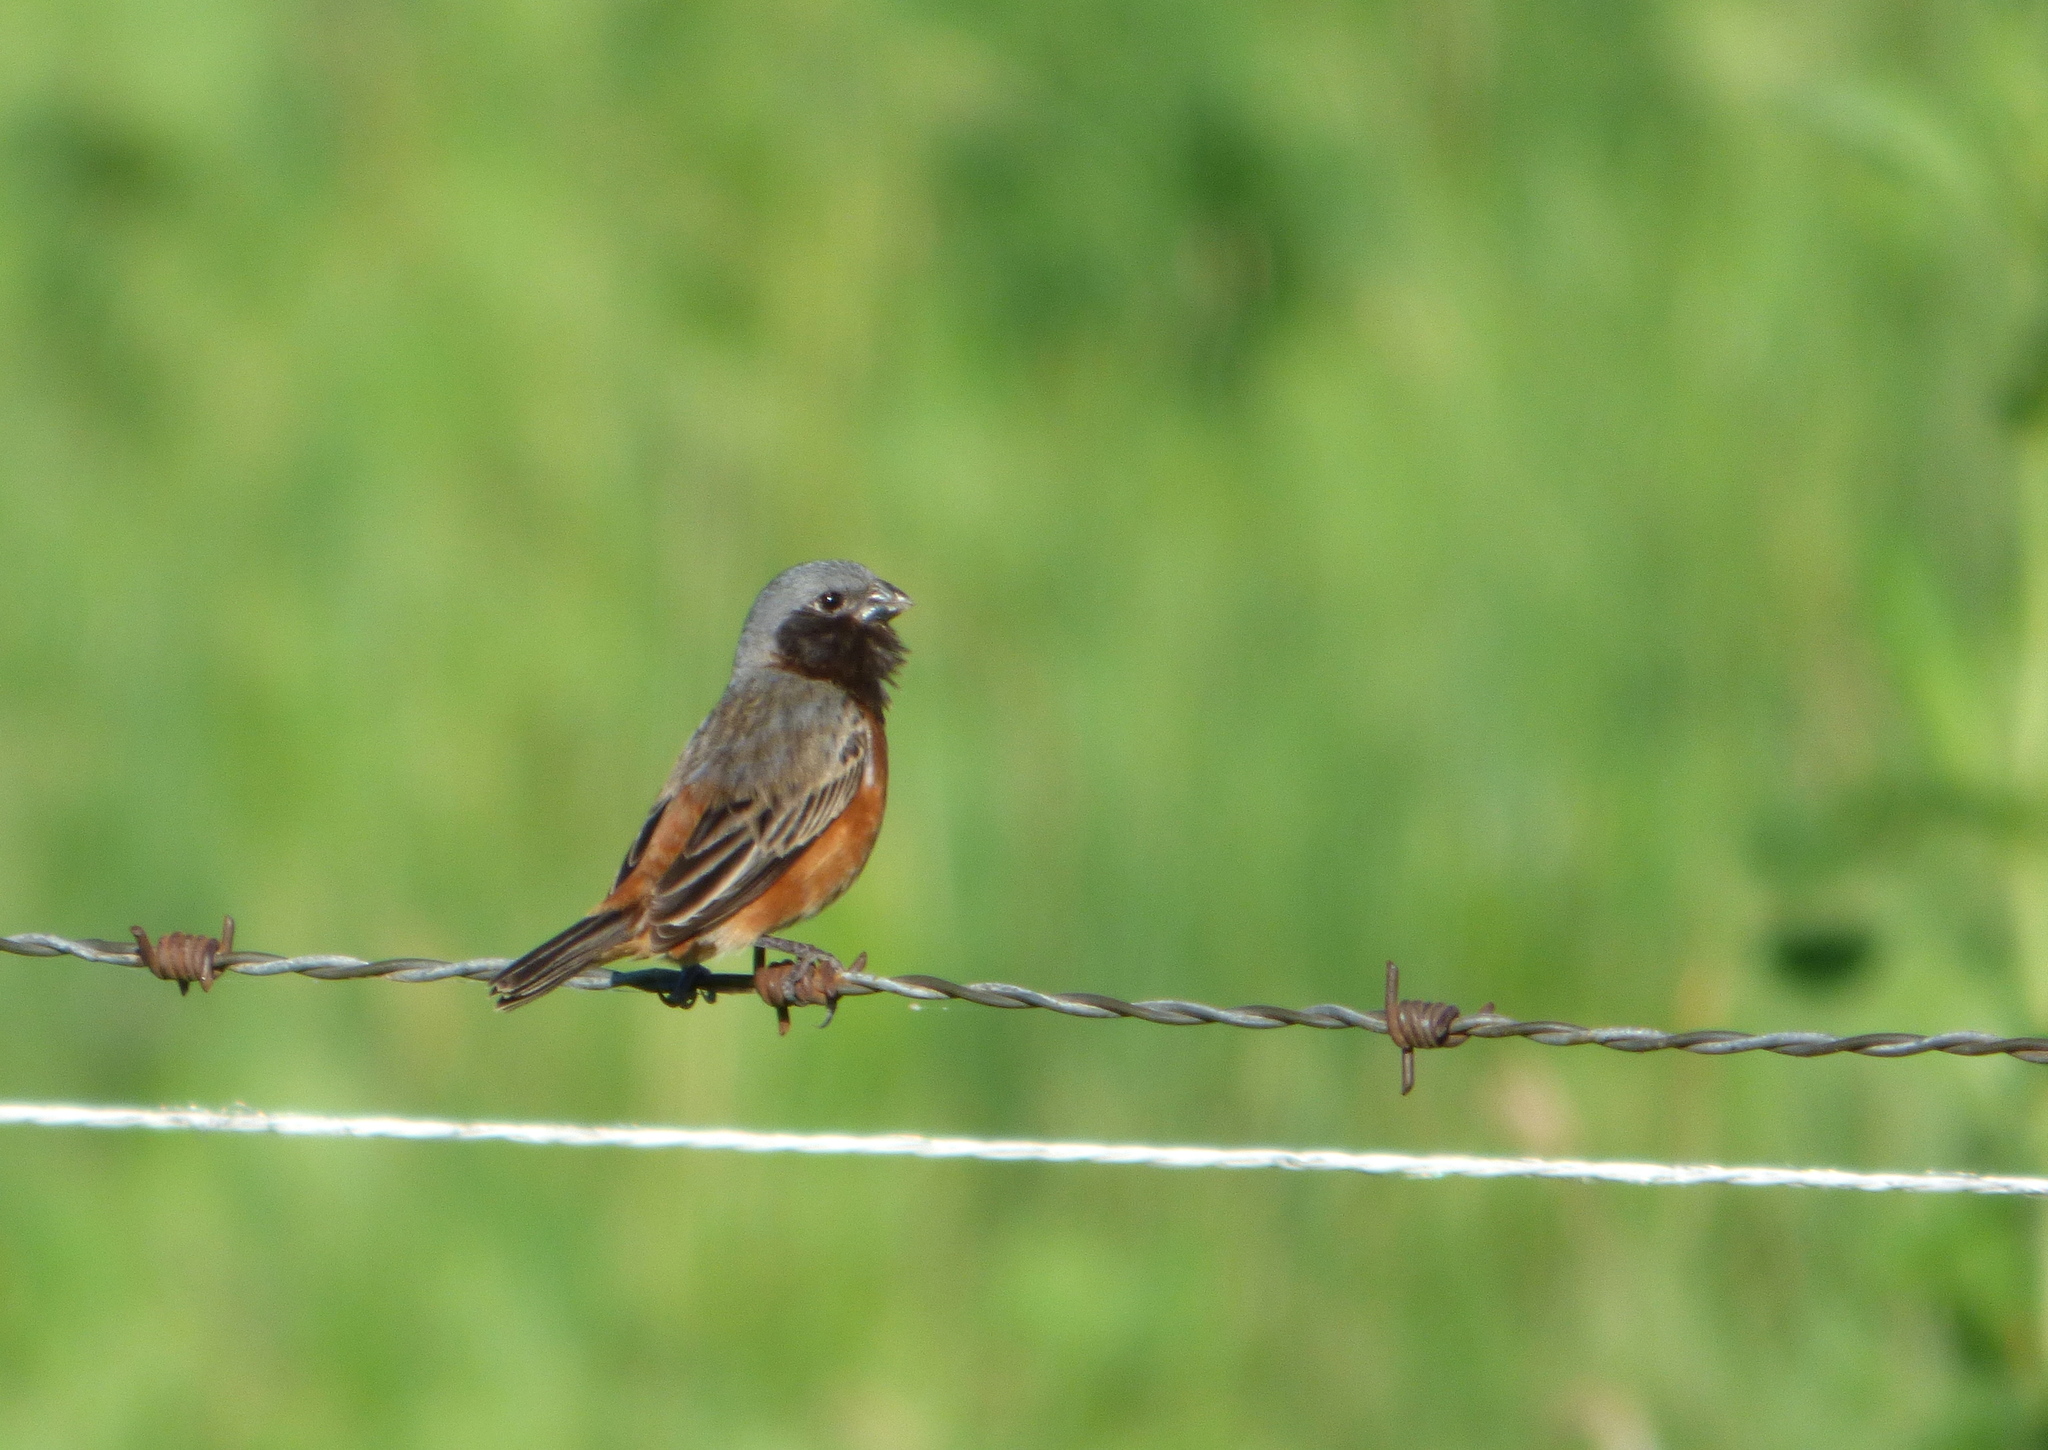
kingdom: Animalia
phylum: Chordata
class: Aves
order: Passeriformes
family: Thraupidae
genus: Sporophila
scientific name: Sporophila ruficollis
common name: Dark-throated seedeater
